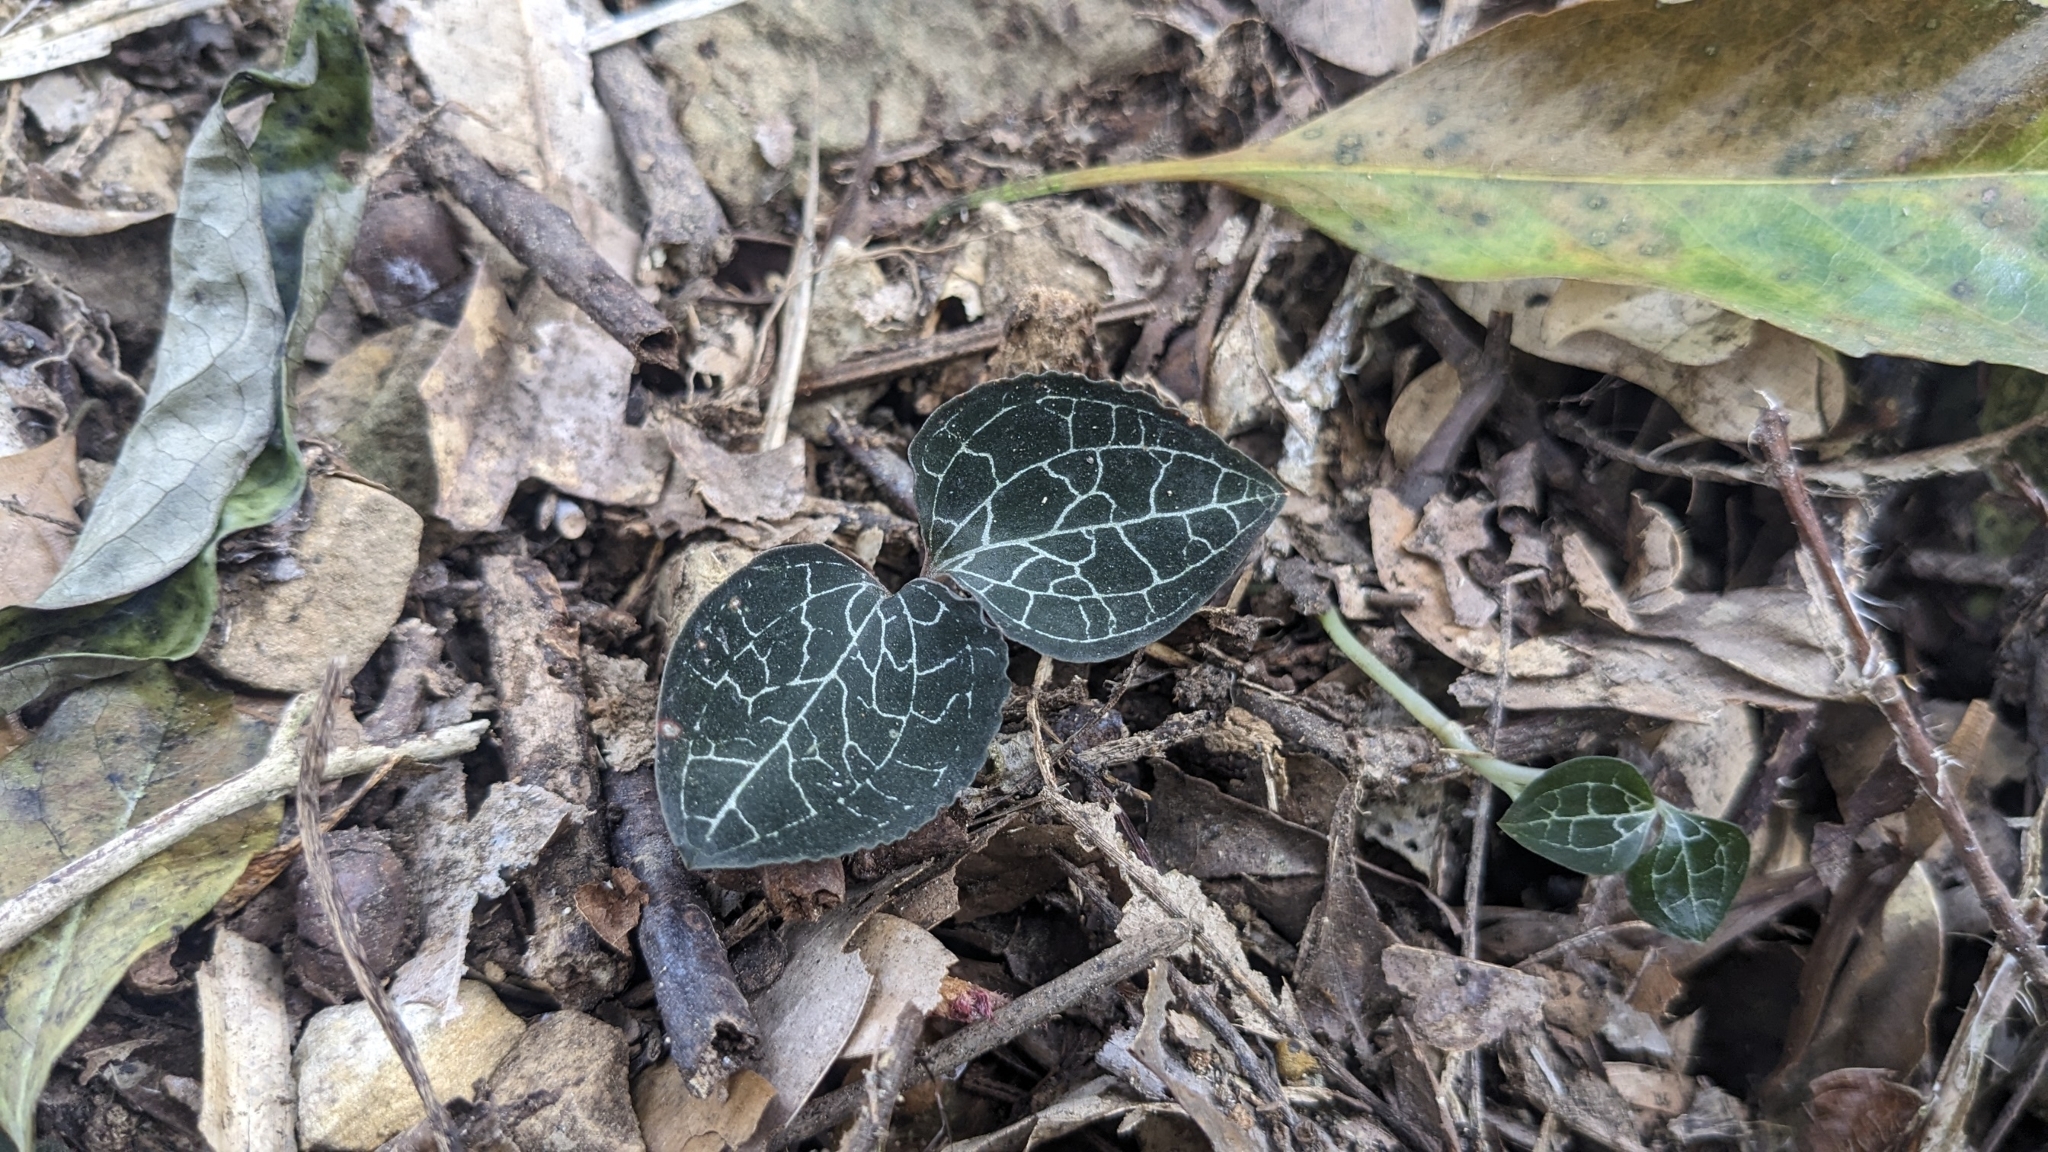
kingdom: Plantae
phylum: Tracheophyta
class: Liliopsida
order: Asparagales
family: Orchidaceae
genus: Anoectochilus
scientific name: Anoectochilus formosanus
